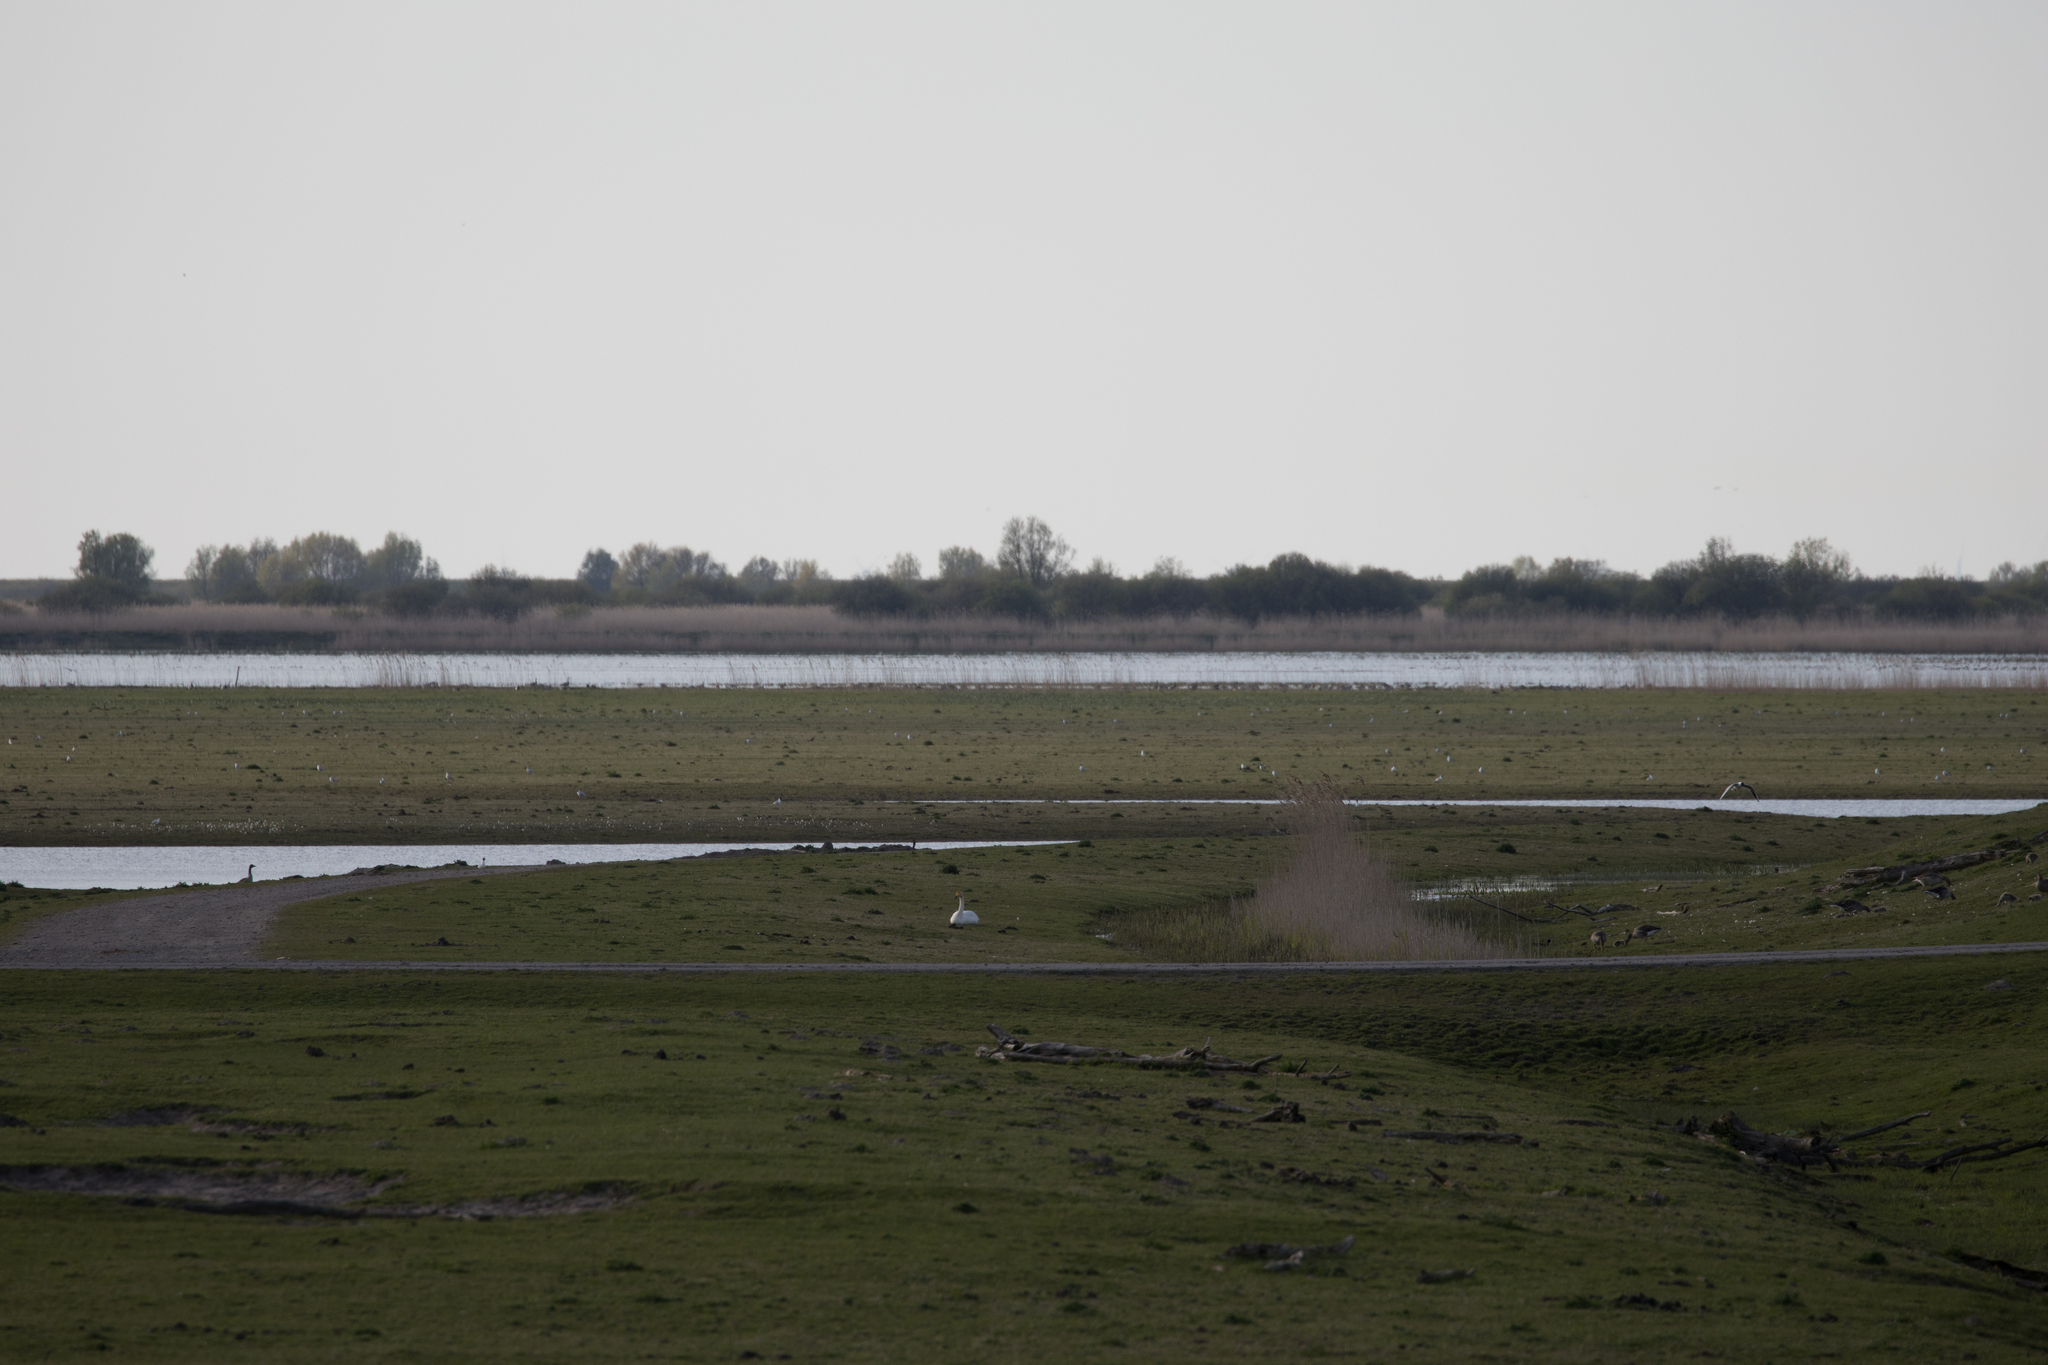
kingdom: Animalia
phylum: Chordata
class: Aves
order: Anseriformes
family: Anatidae
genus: Cygnus
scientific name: Cygnus cygnus
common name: Whooper swan
